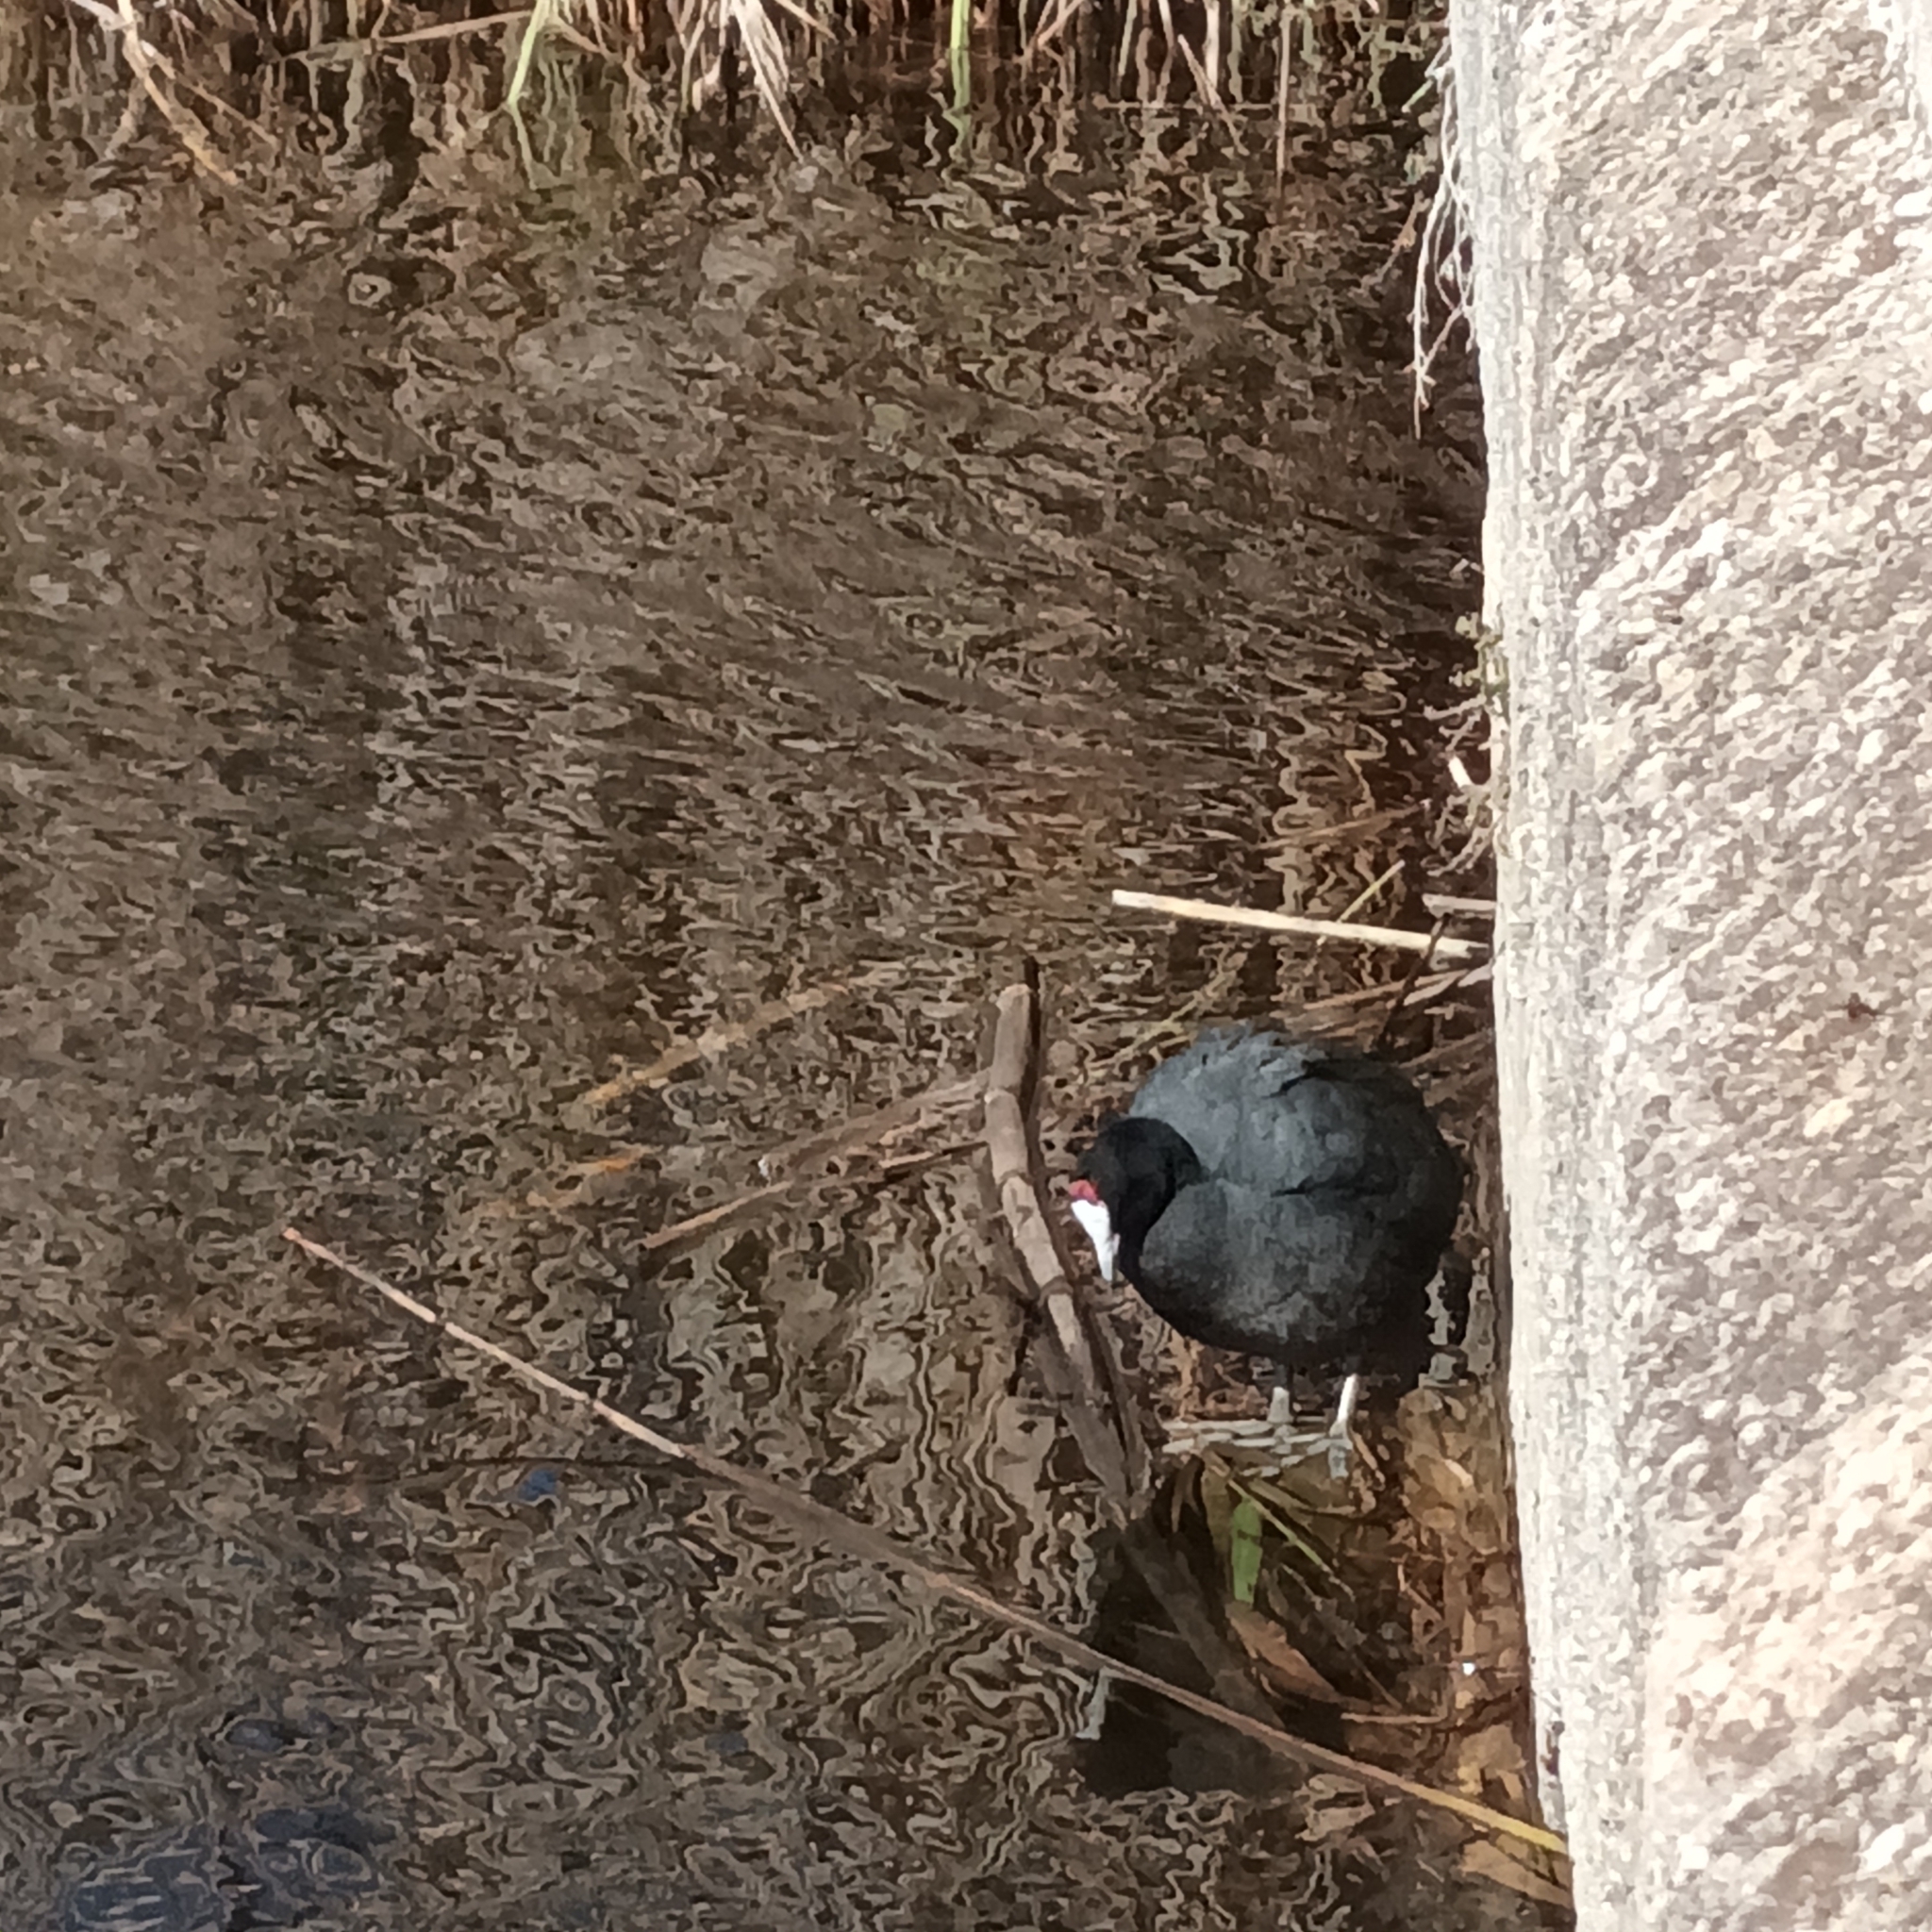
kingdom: Animalia
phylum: Chordata
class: Aves
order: Gruiformes
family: Rallidae
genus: Fulica
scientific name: Fulica cristata
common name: Red-knobbed coot
